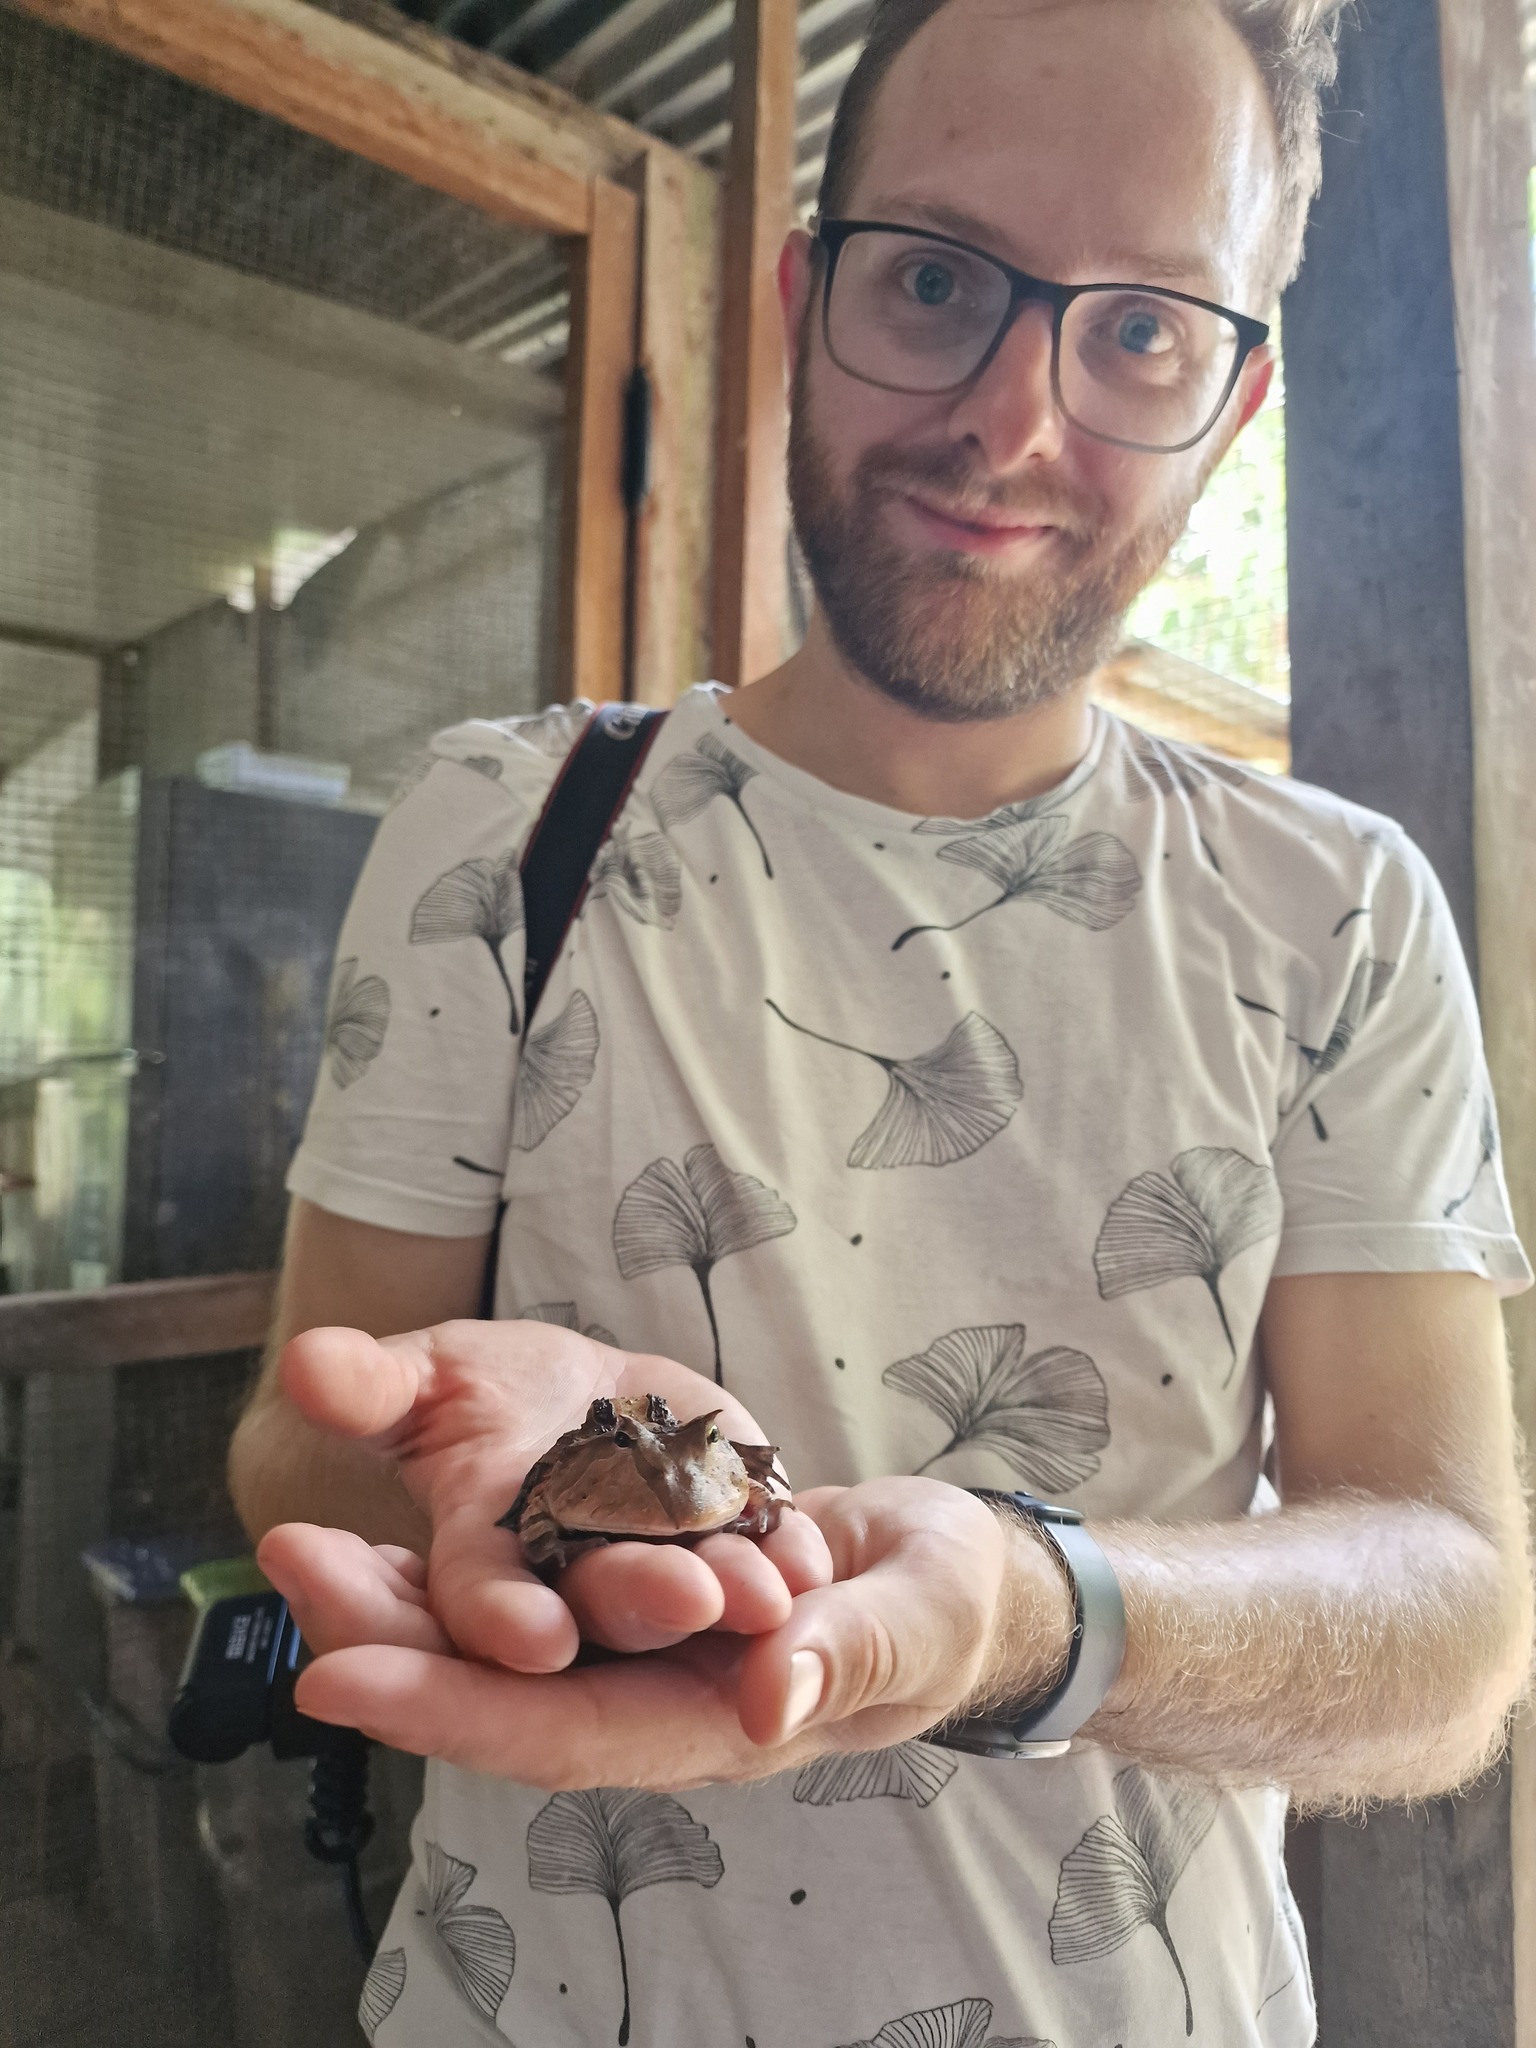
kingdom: Animalia
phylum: Chordata
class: Amphibia
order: Anura
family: Ceratophryidae
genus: Ceratophrys
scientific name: Ceratophrys cornuta
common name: Amazonian horned frog
